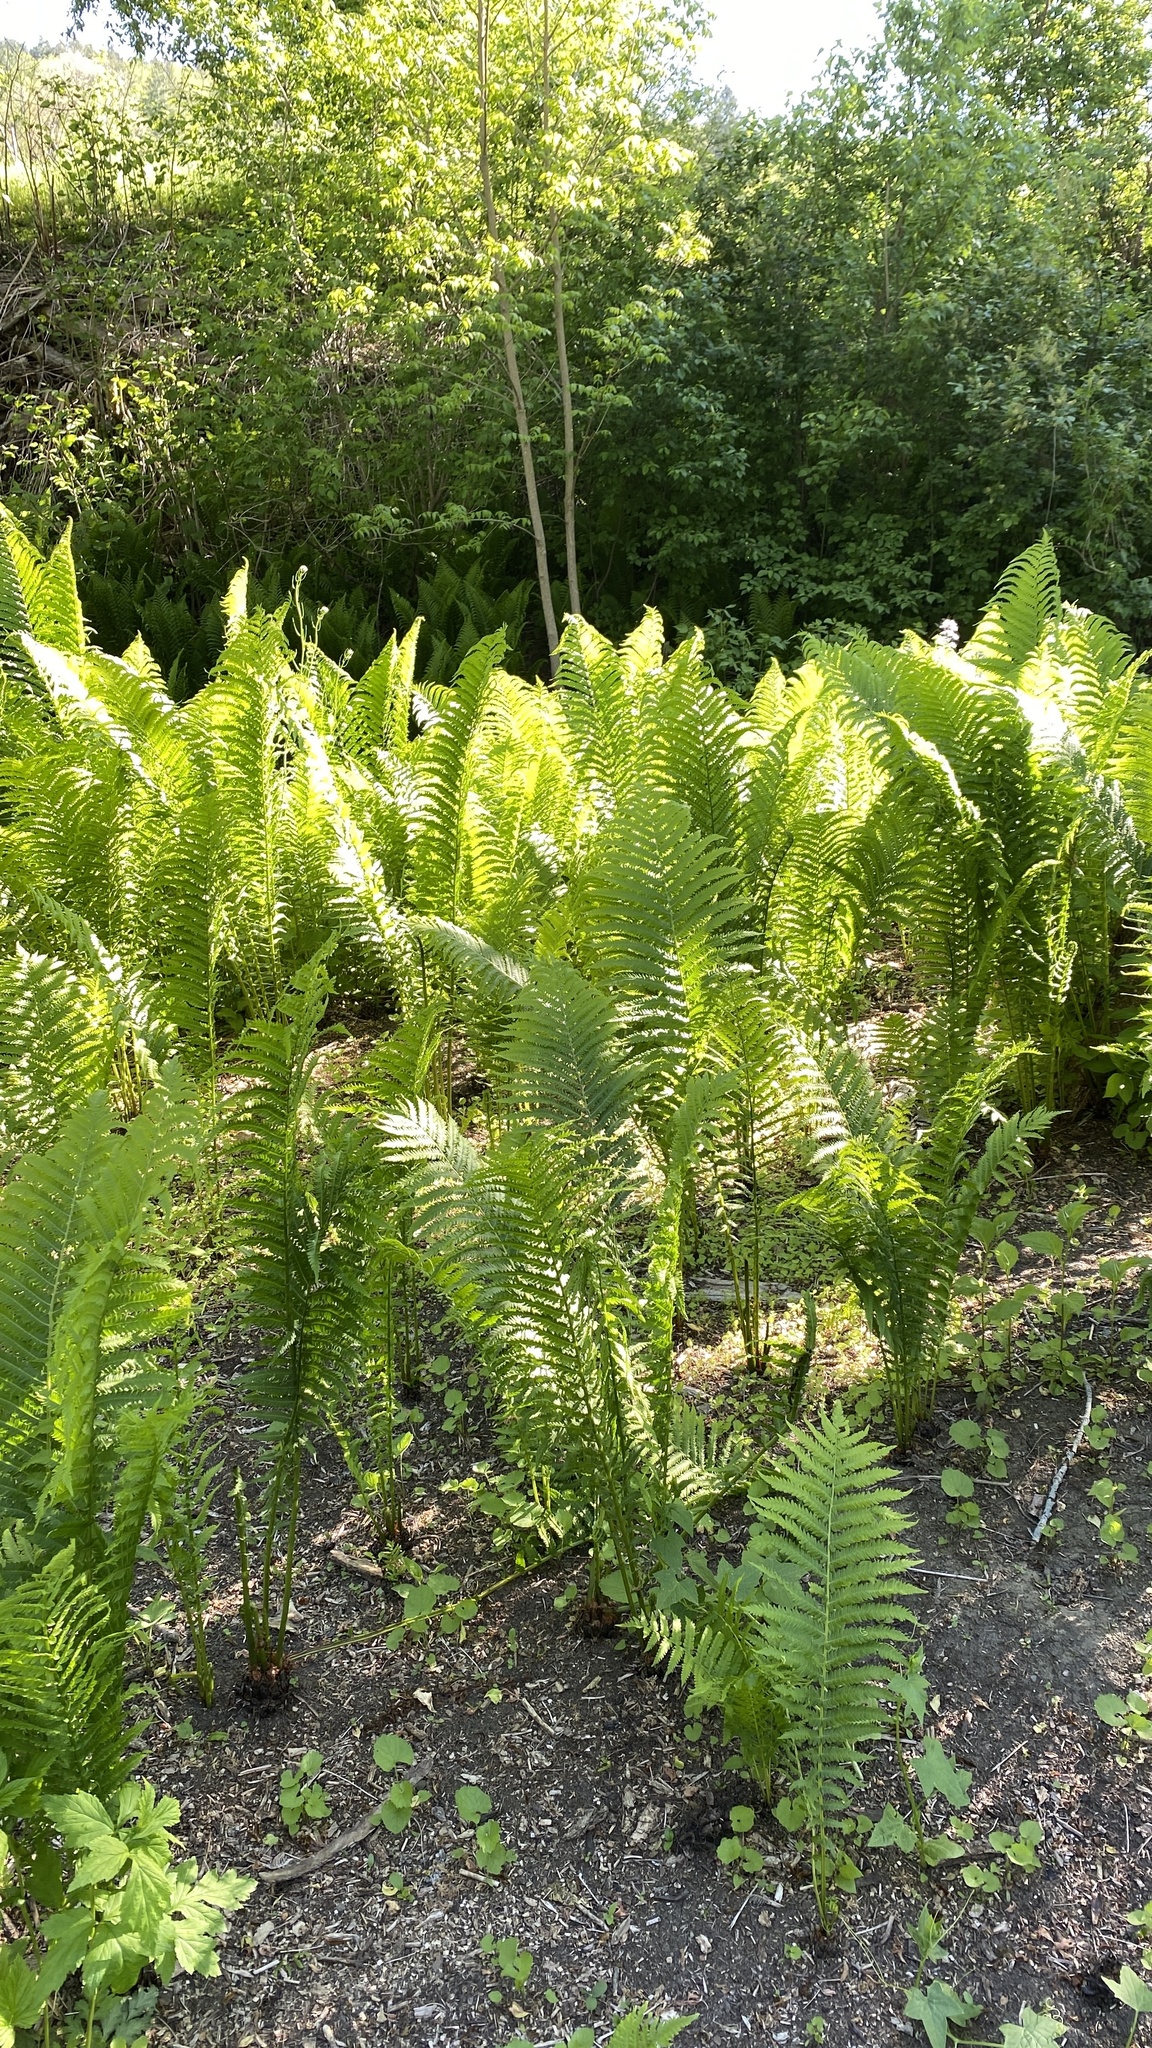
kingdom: Plantae
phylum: Tracheophyta
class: Polypodiopsida
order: Polypodiales
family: Onocleaceae
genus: Matteuccia
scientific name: Matteuccia struthiopteris
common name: Ostrich fern
